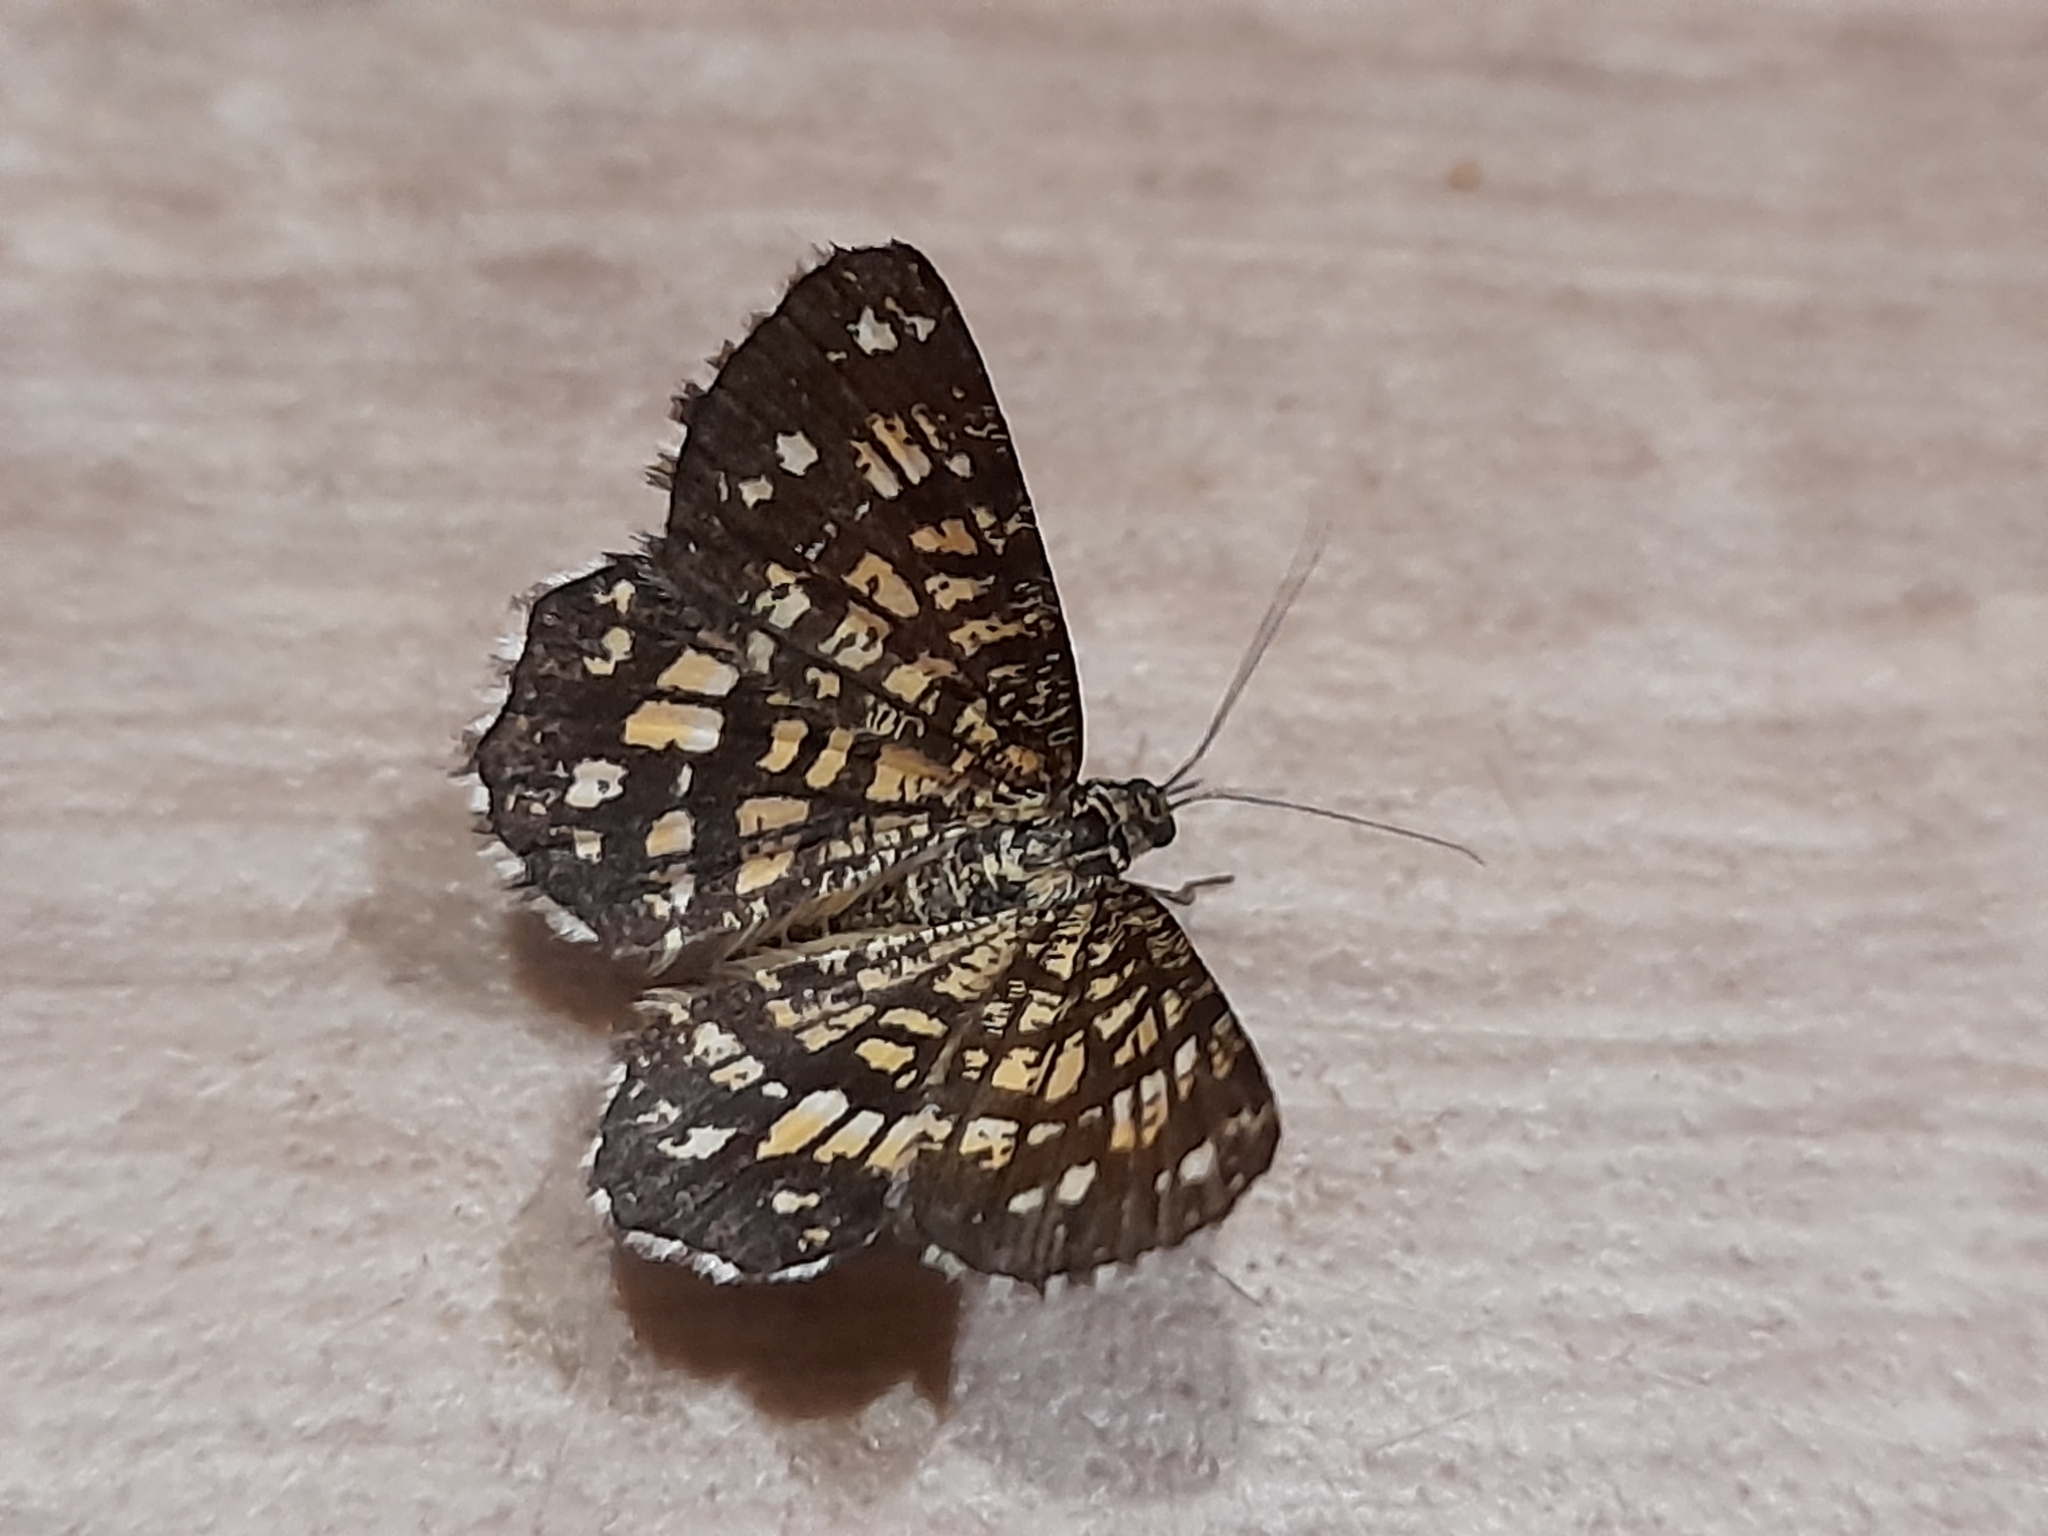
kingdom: Animalia
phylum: Arthropoda
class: Insecta
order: Lepidoptera
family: Geometridae
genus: Chiasmia
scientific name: Chiasmia clathrata
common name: Latticed heath
